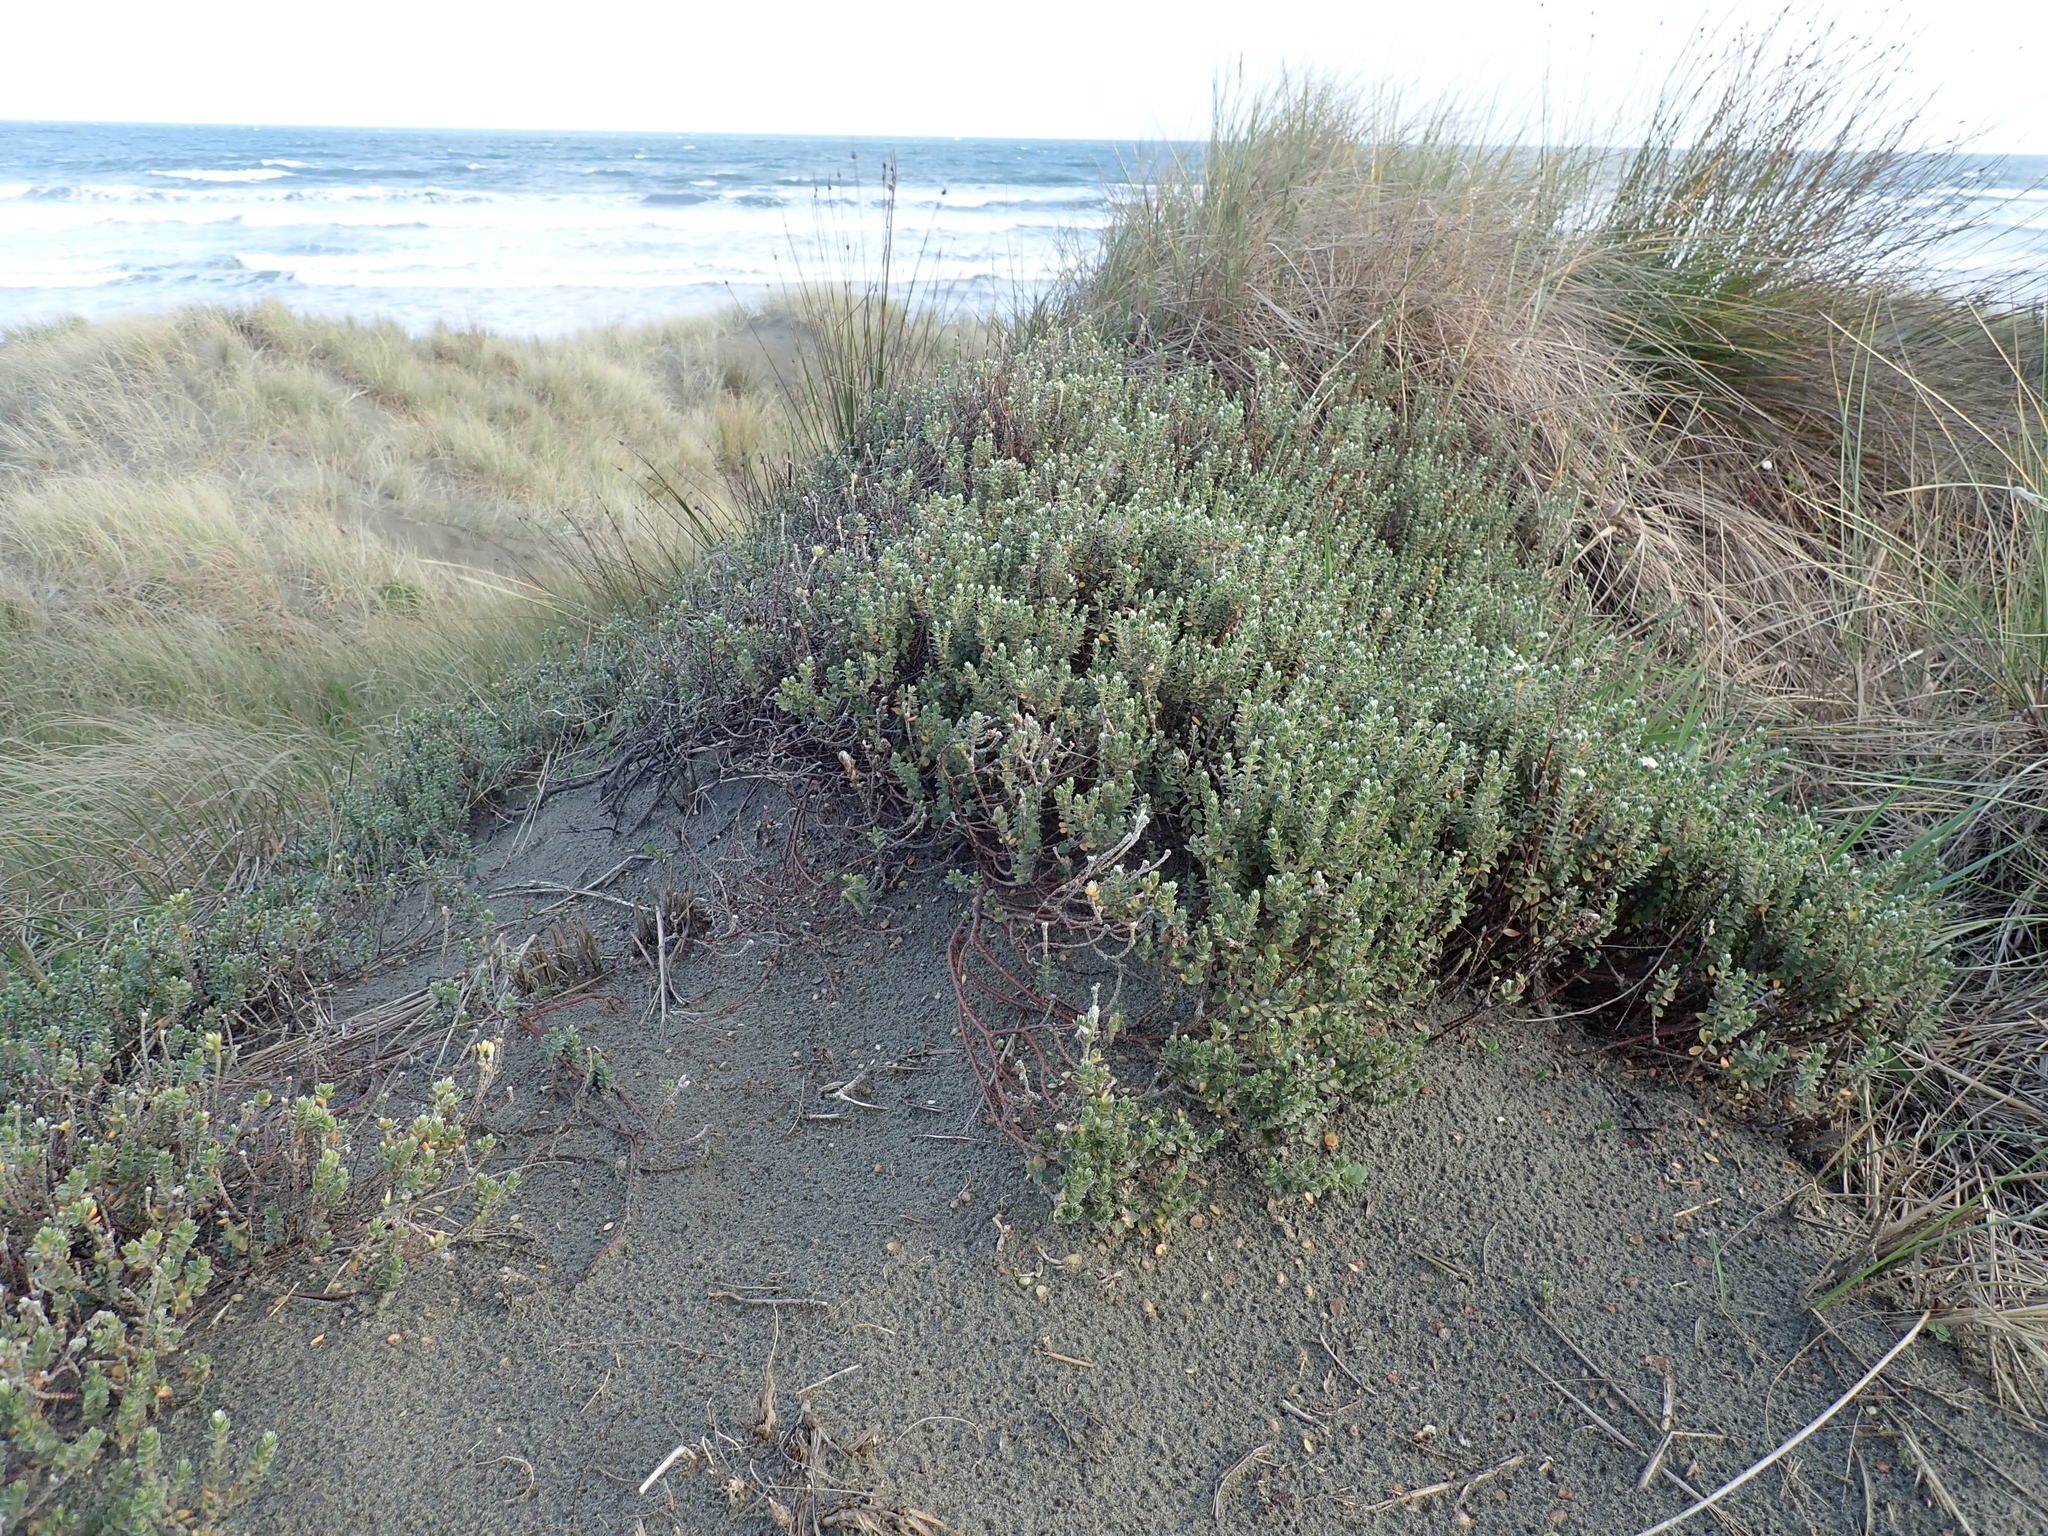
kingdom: Plantae
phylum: Tracheophyta
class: Magnoliopsida
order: Malvales
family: Thymelaeaceae
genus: Pimelea
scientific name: Pimelea villosa
